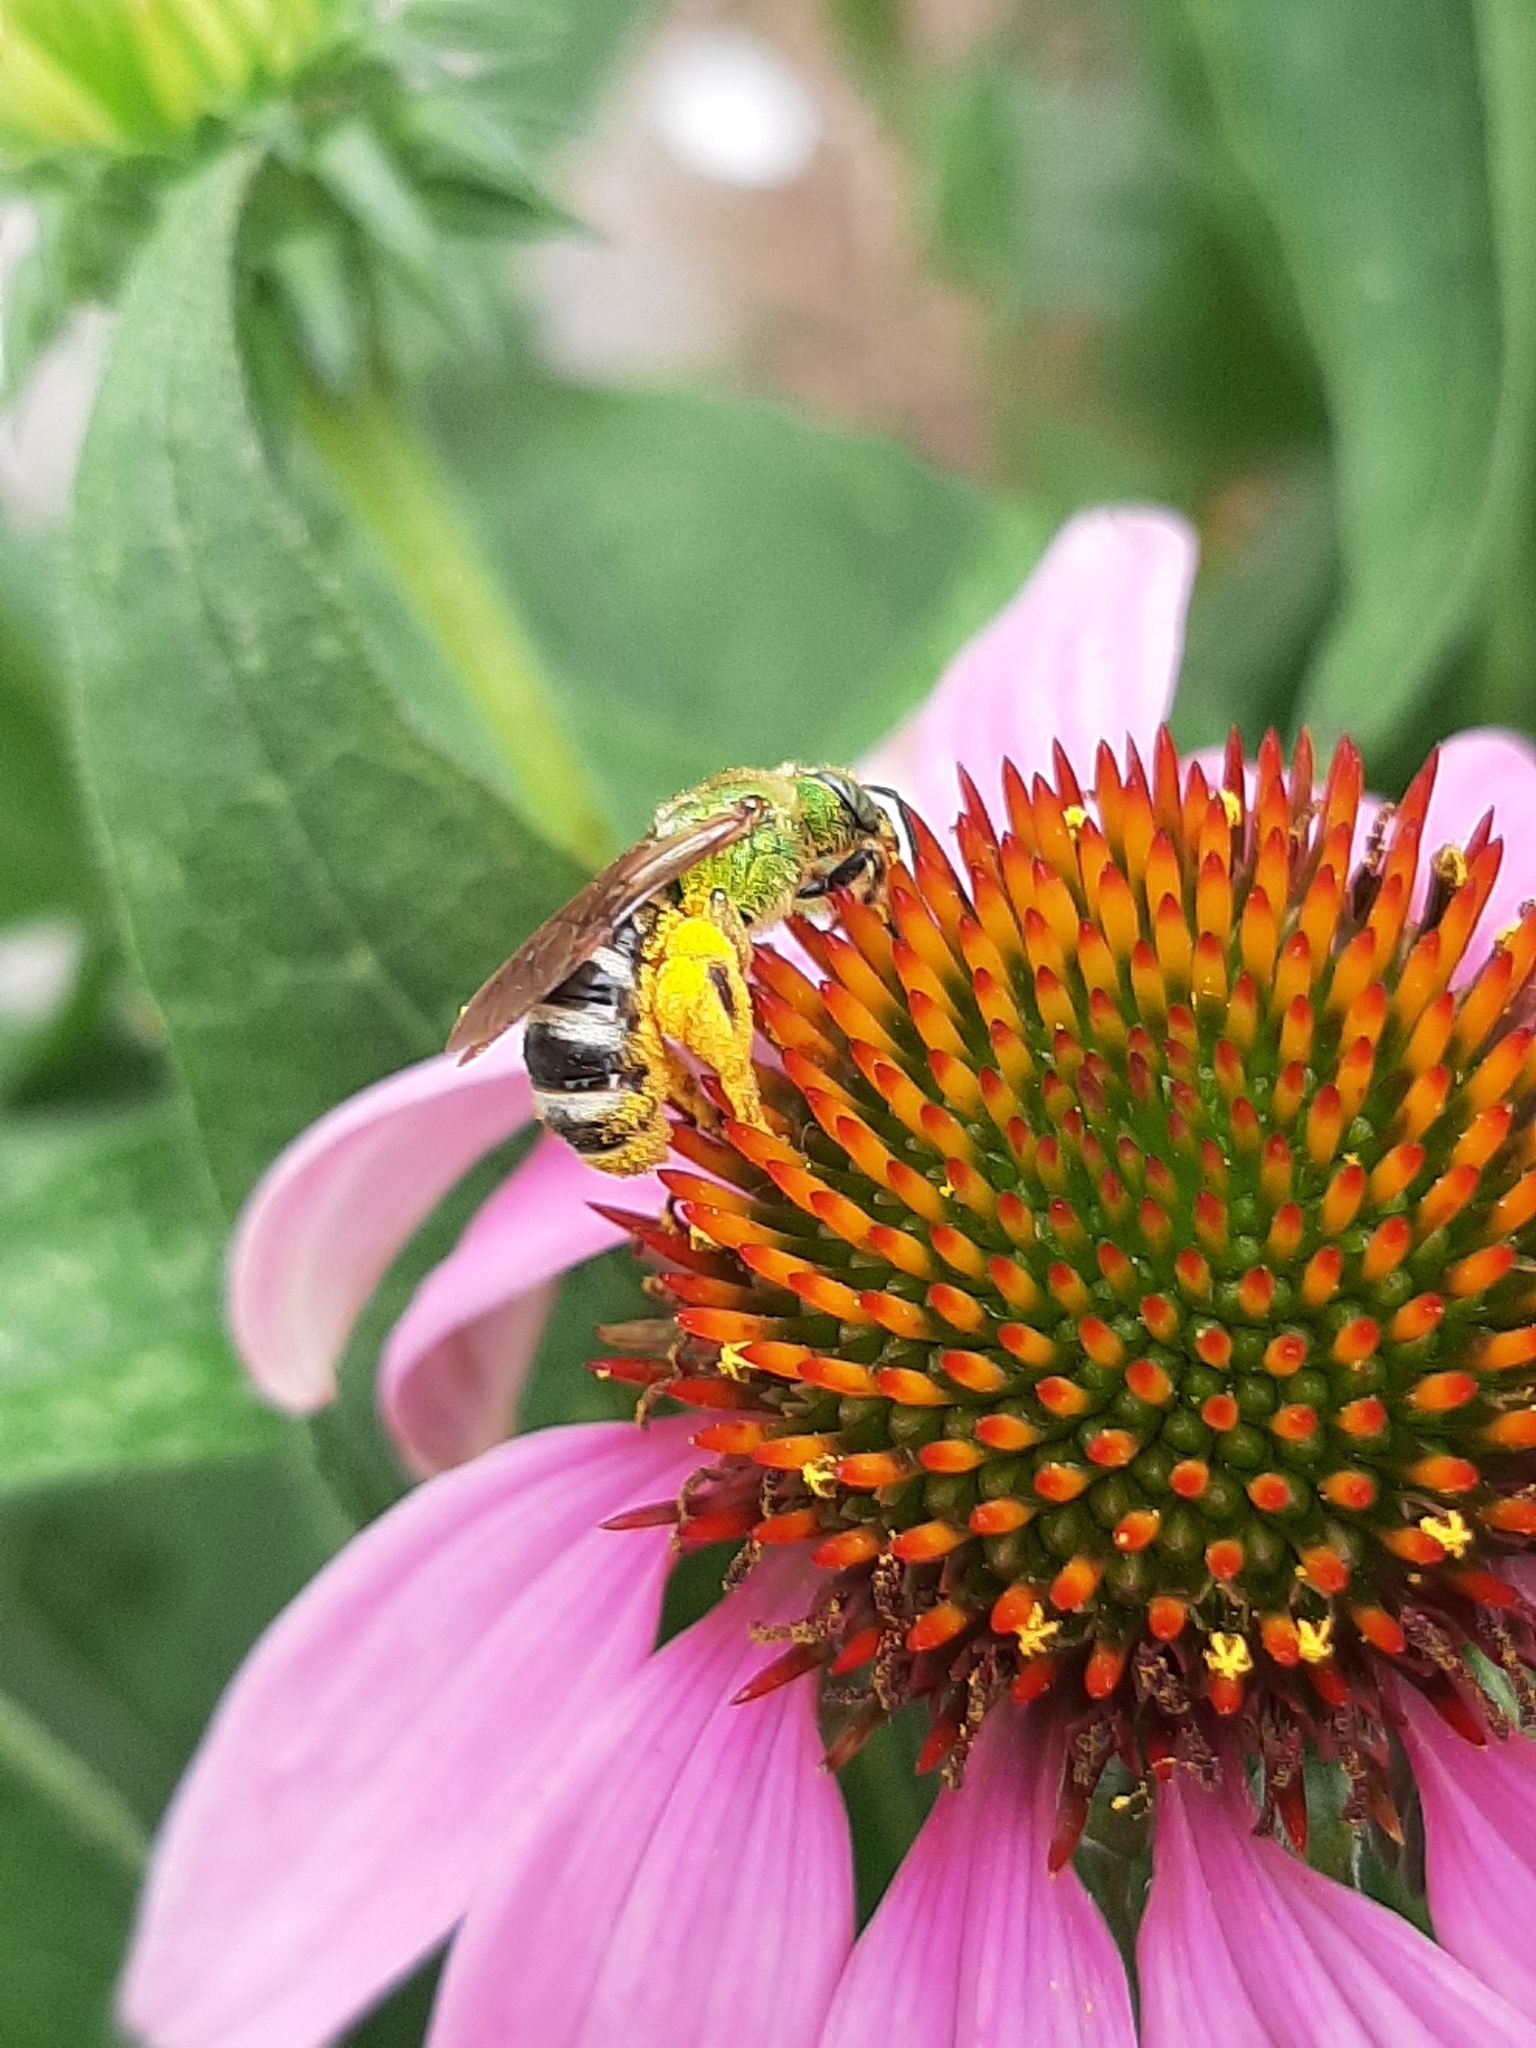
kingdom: Animalia
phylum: Arthropoda
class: Insecta
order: Hymenoptera
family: Halictidae
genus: Agapostemon
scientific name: Agapostemon virescens
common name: Bicolored striped sweat bee
